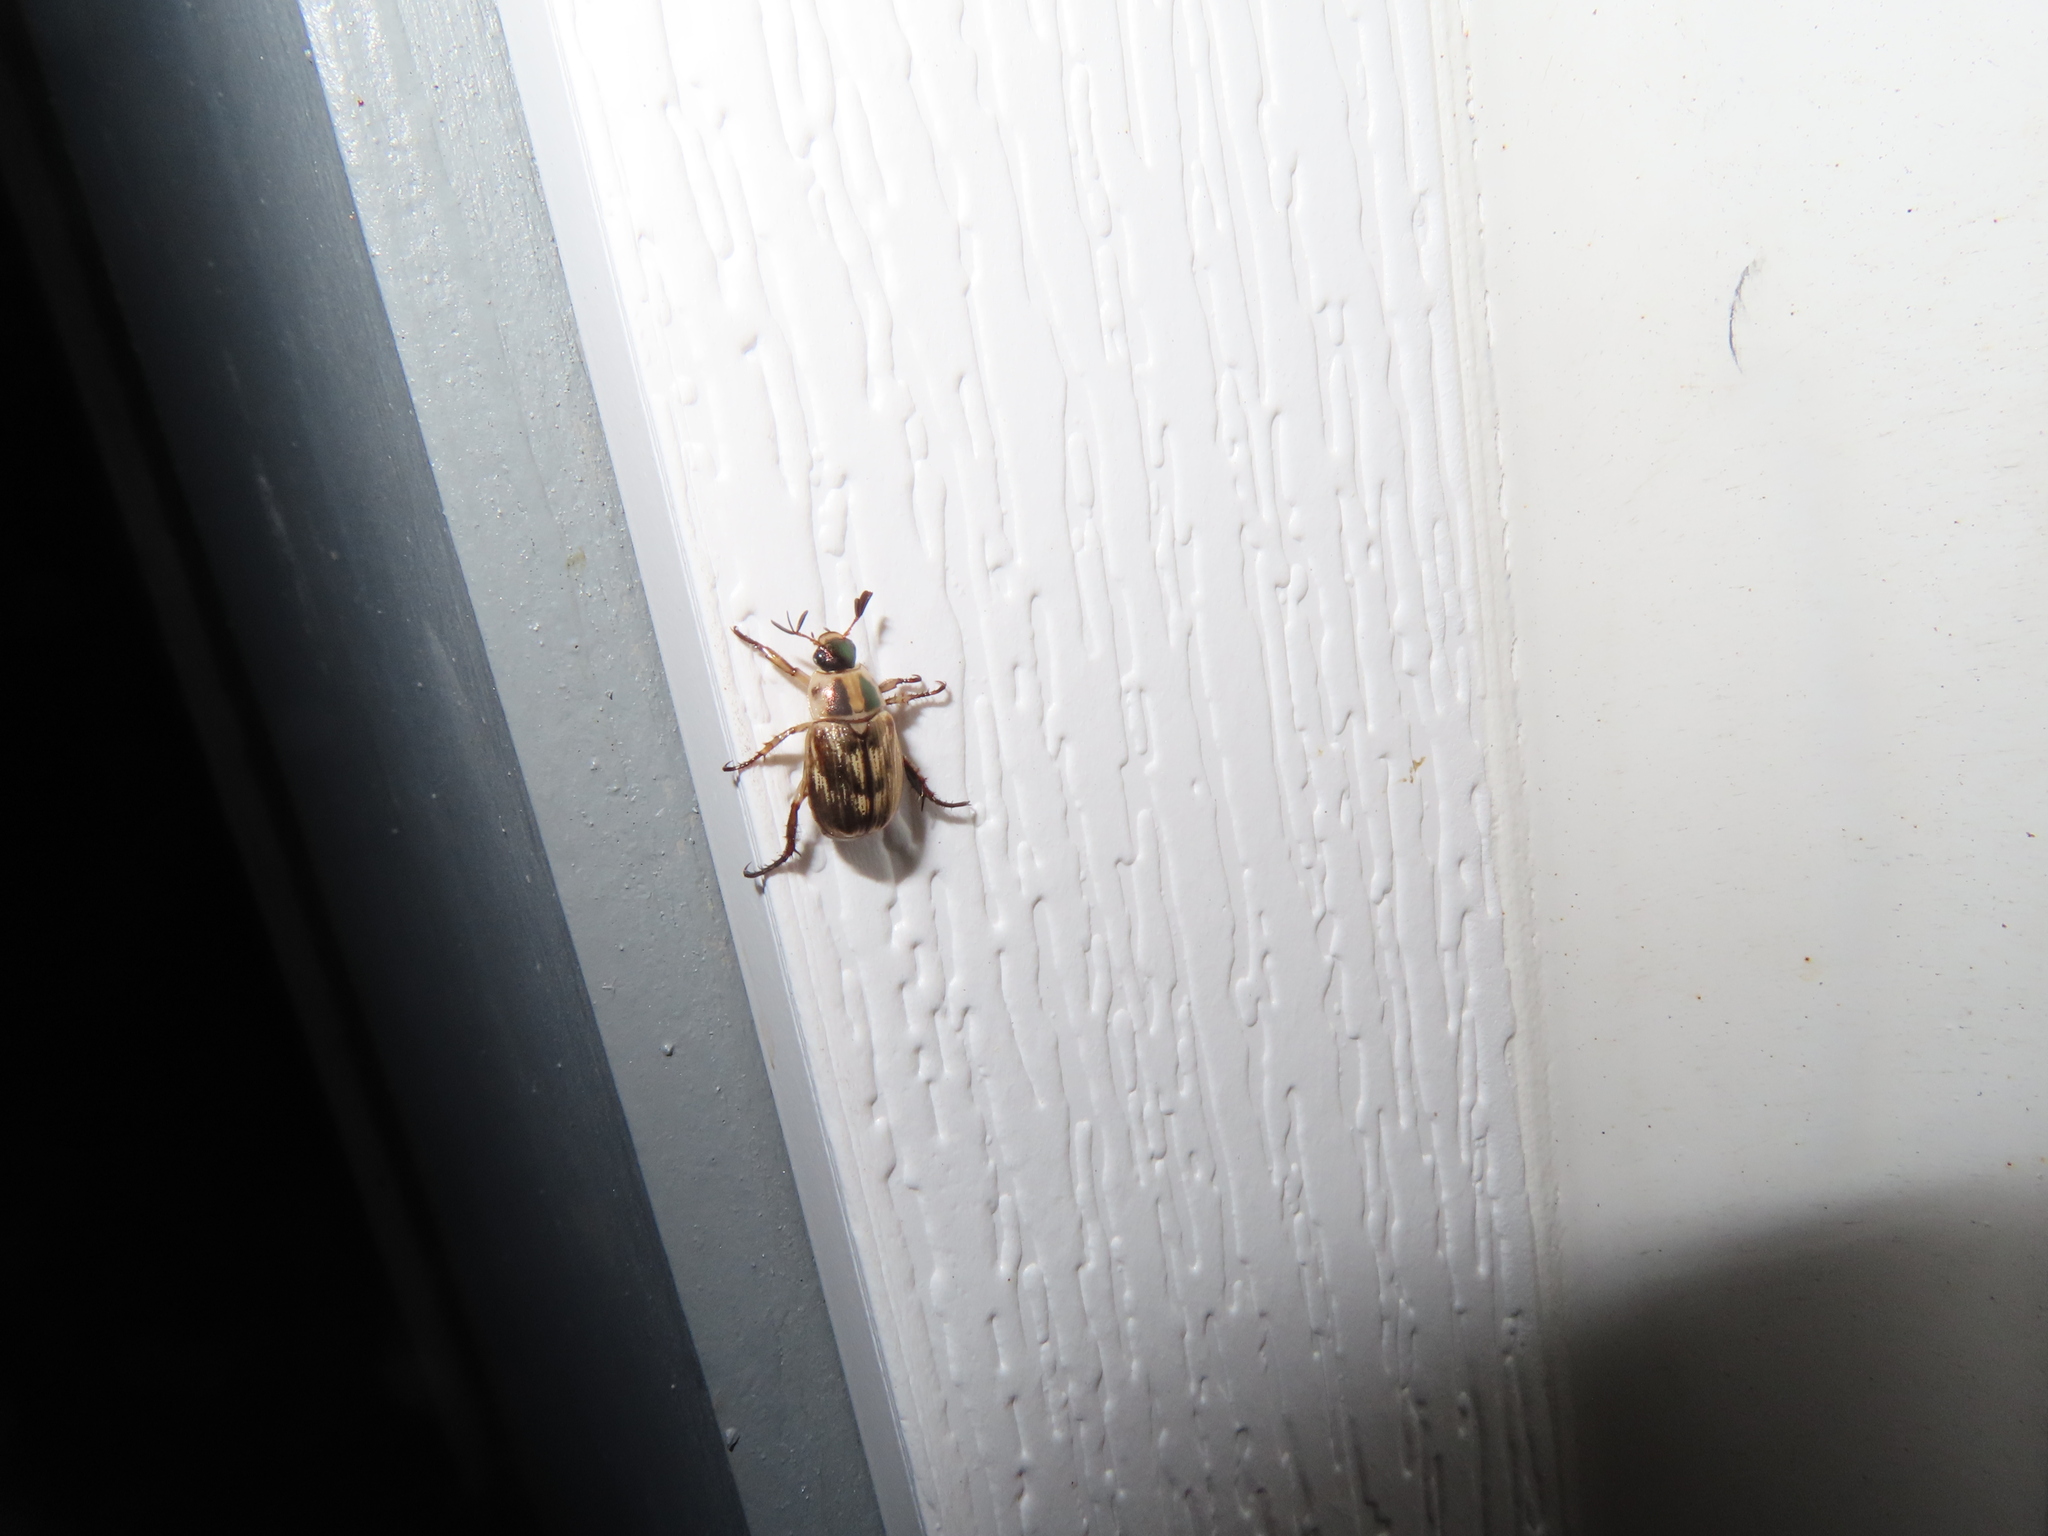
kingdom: Animalia
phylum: Arthropoda
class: Insecta
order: Coleoptera
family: Scarabaeidae
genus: Exomala
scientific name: Exomala orientalis
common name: Oriental beetle
